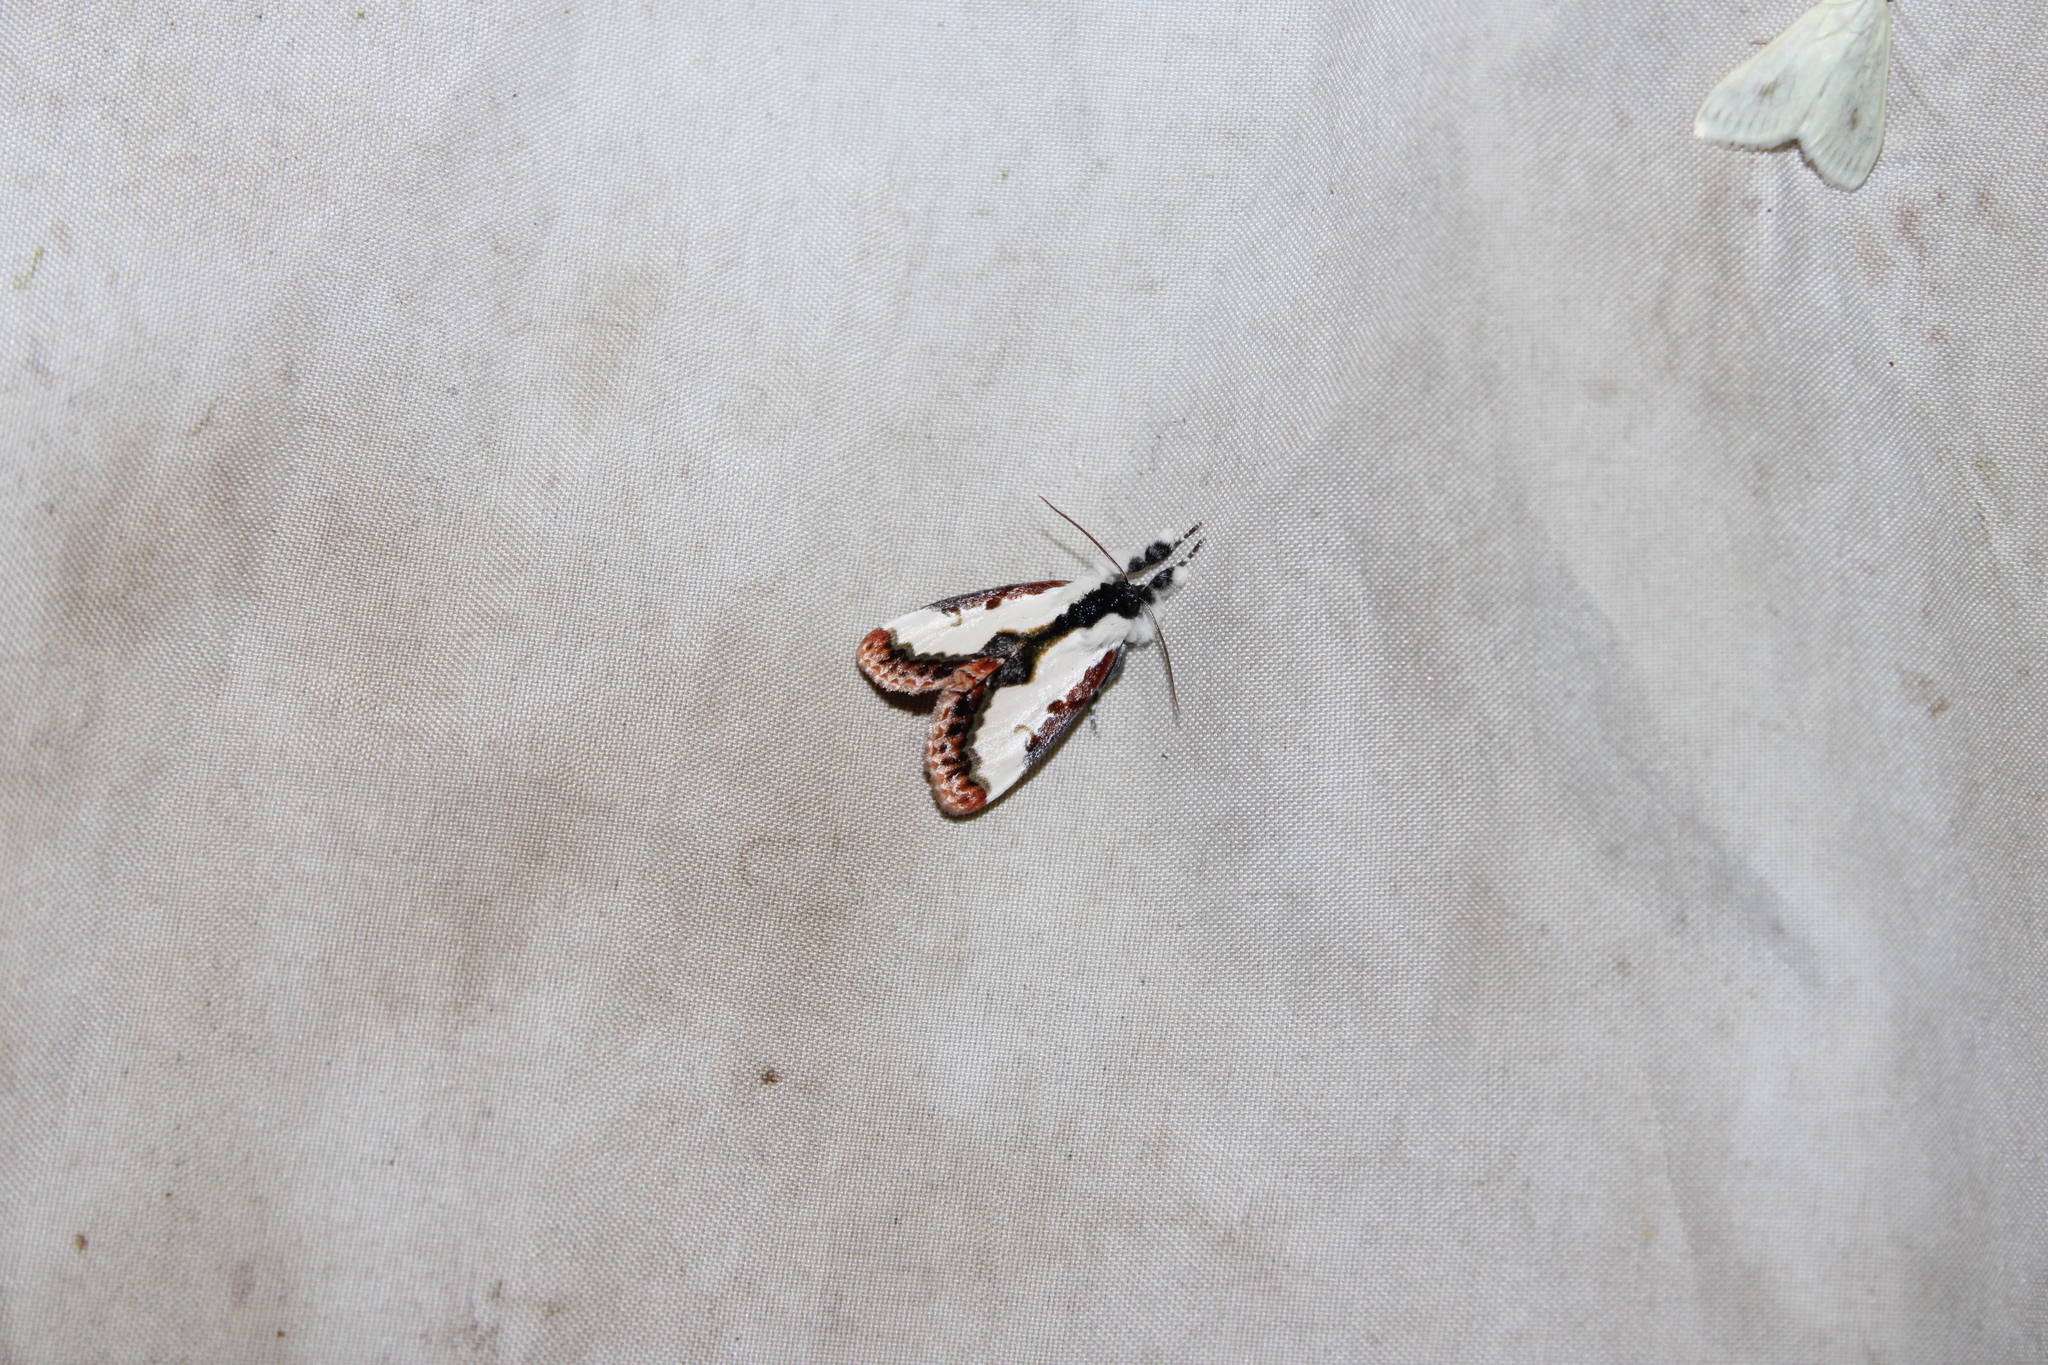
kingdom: Animalia
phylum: Arthropoda
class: Insecta
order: Lepidoptera
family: Noctuidae
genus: Eudryas
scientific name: Eudryas unio
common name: Pearly wood-nymph
